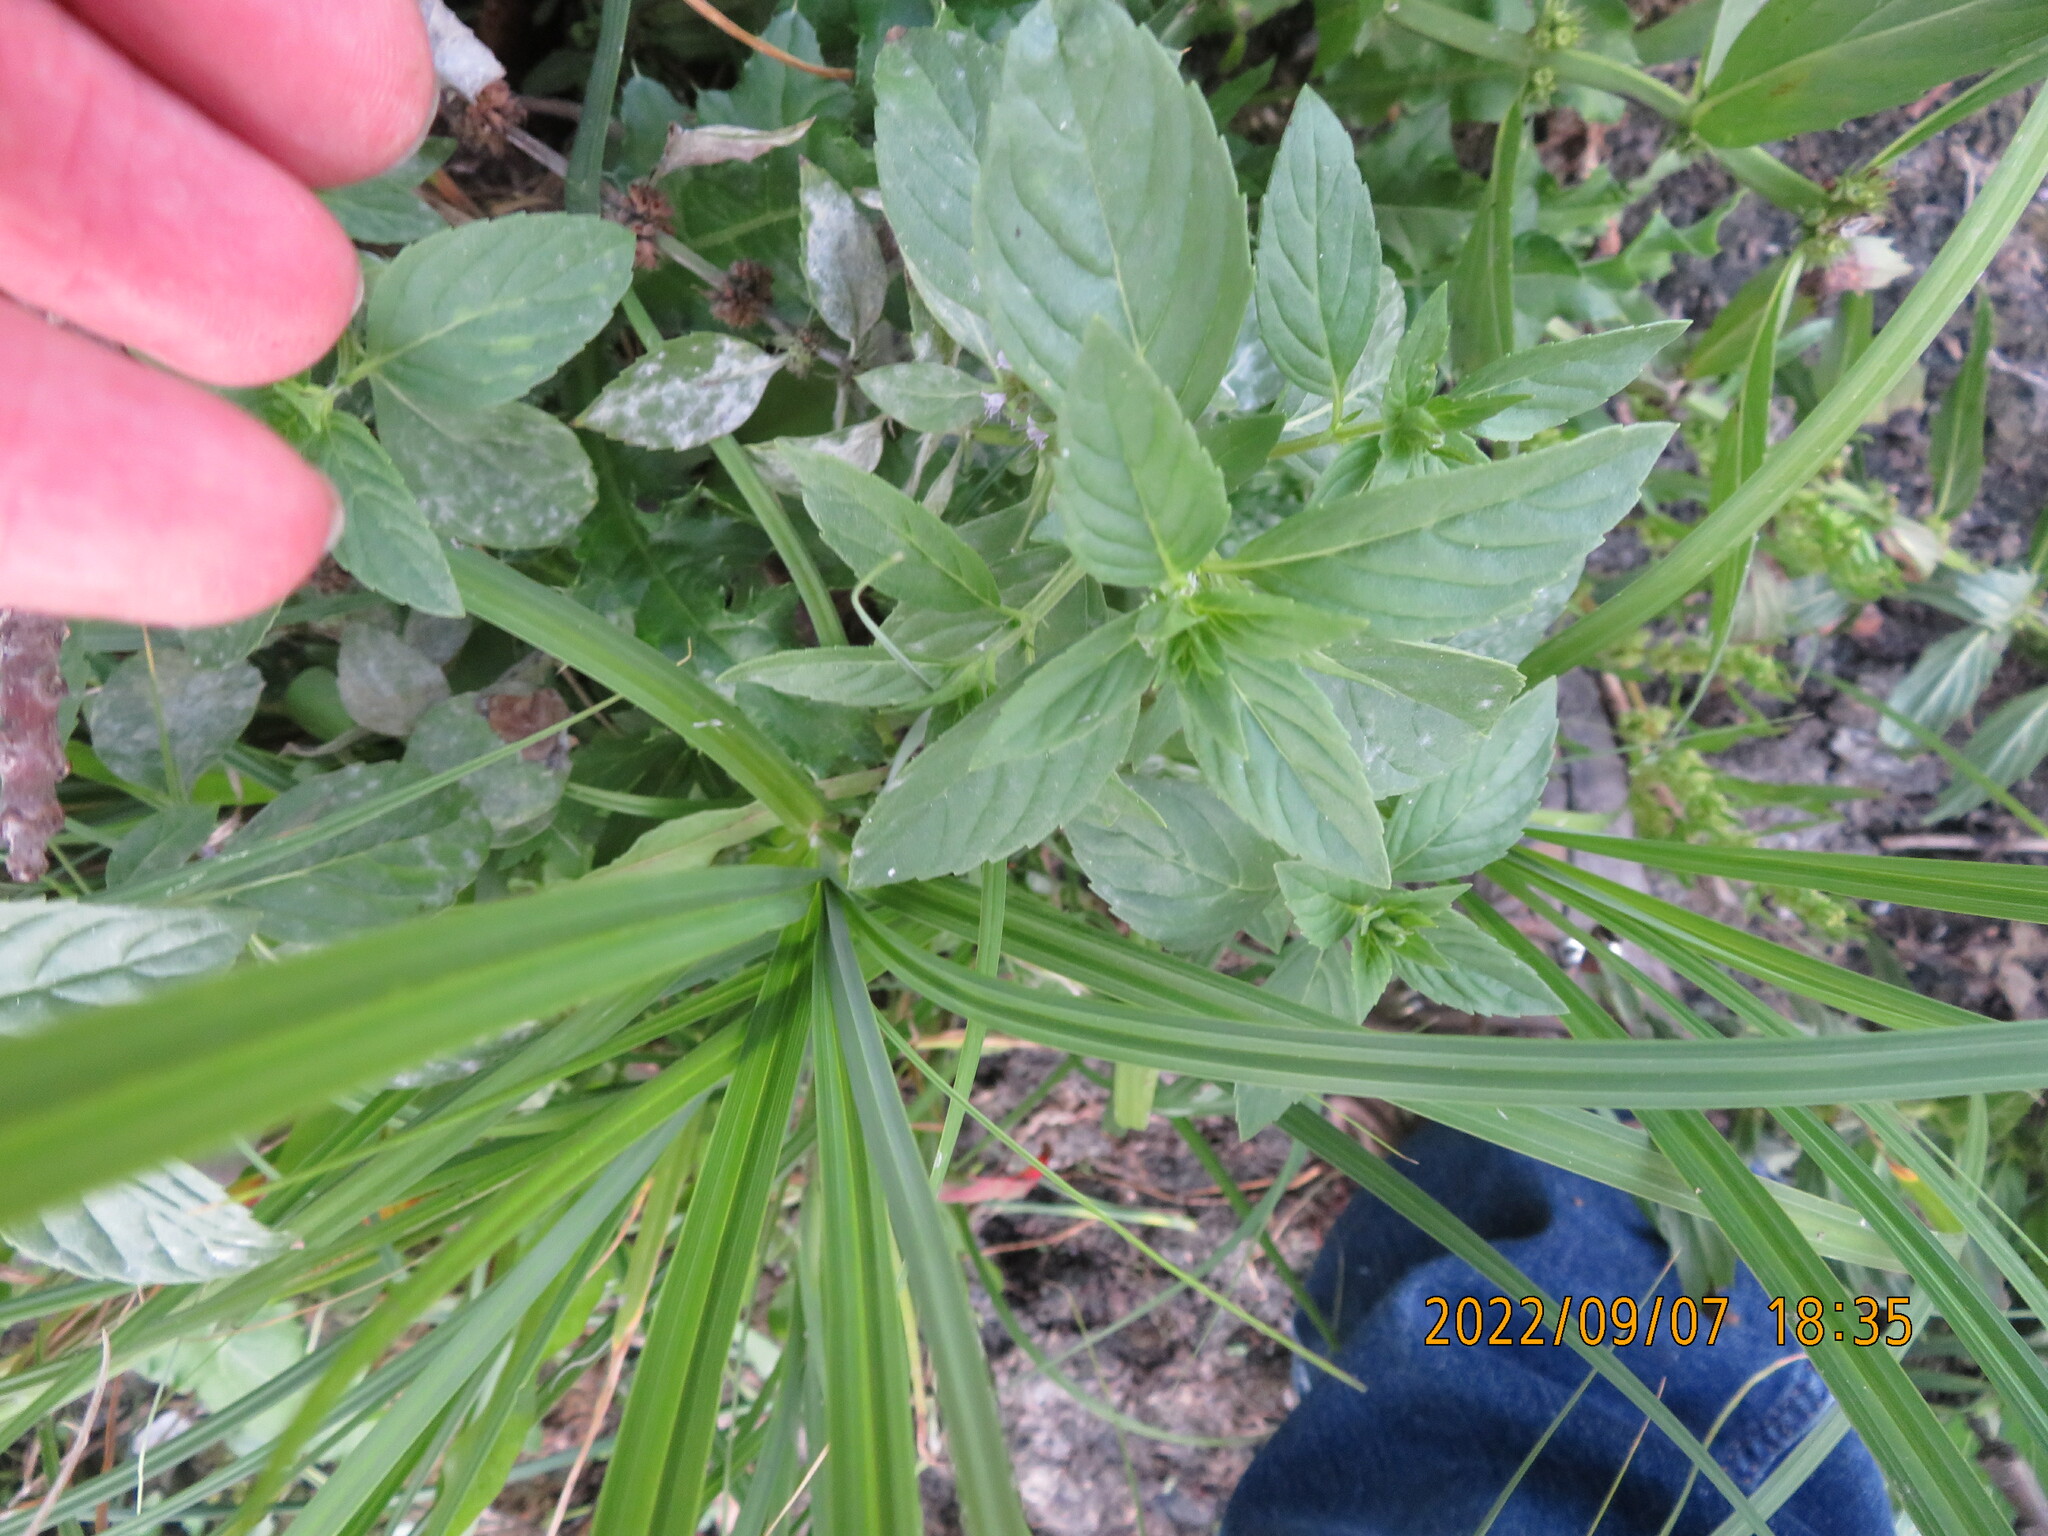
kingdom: Plantae
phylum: Tracheophyta
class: Magnoliopsida
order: Lamiales
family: Lamiaceae
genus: Mentha
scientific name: Mentha canadensis
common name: American corn mint
